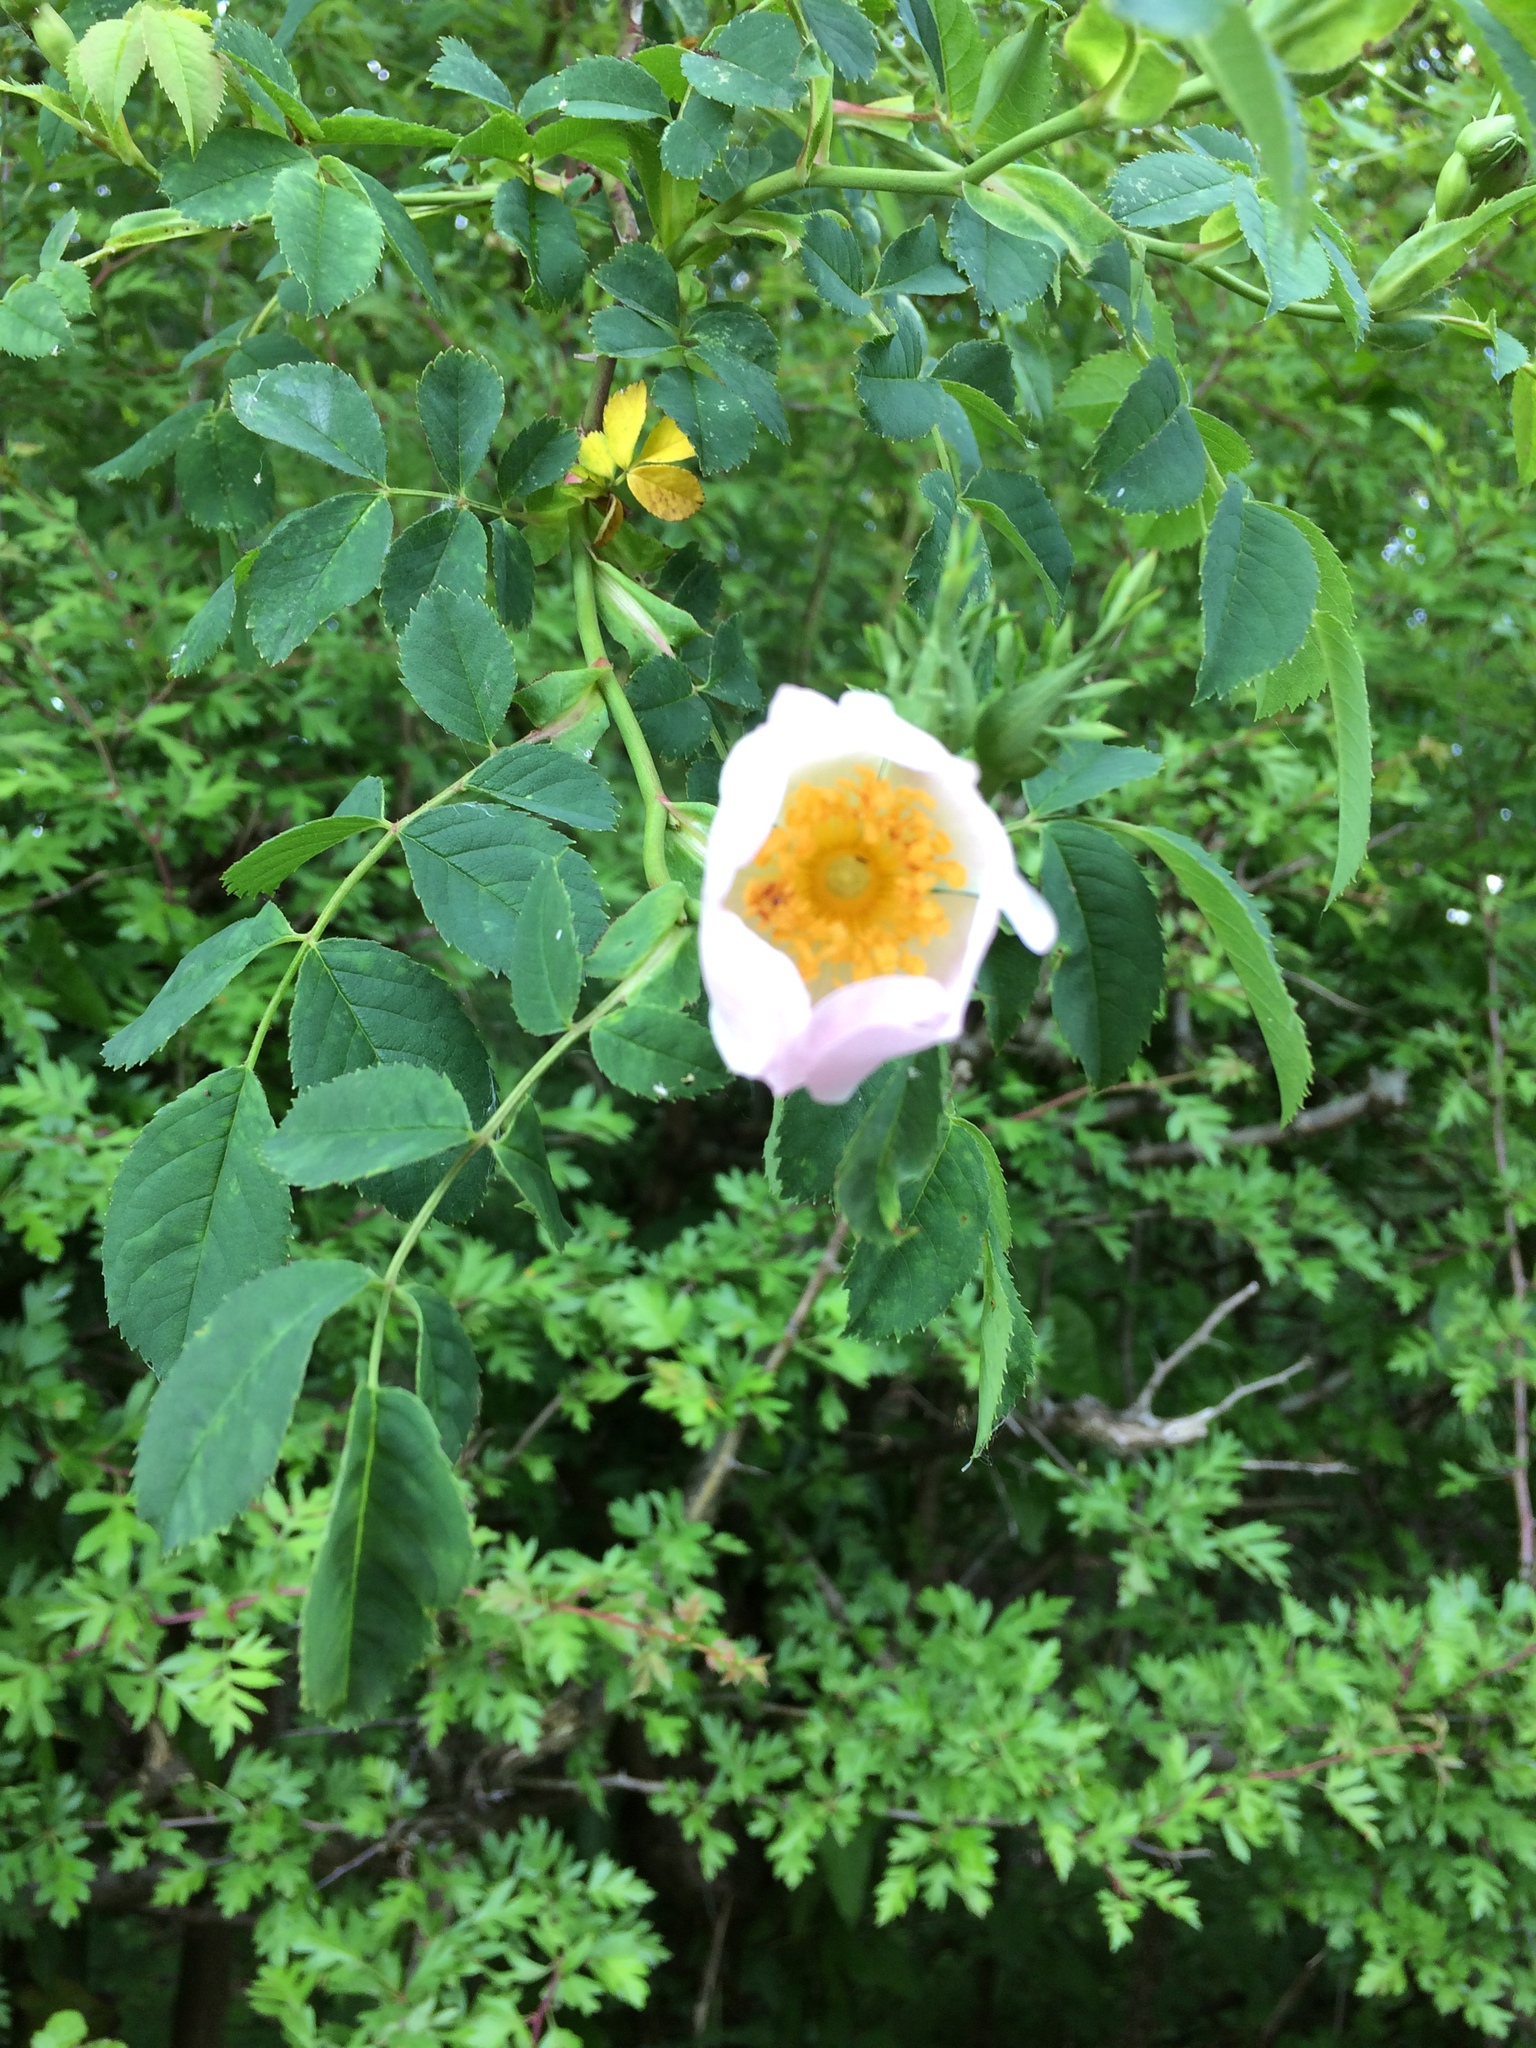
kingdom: Plantae
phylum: Tracheophyta
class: Magnoliopsida
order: Rosales
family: Rosaceae
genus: Rosa
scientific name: Rosa canina
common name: Dog rose
